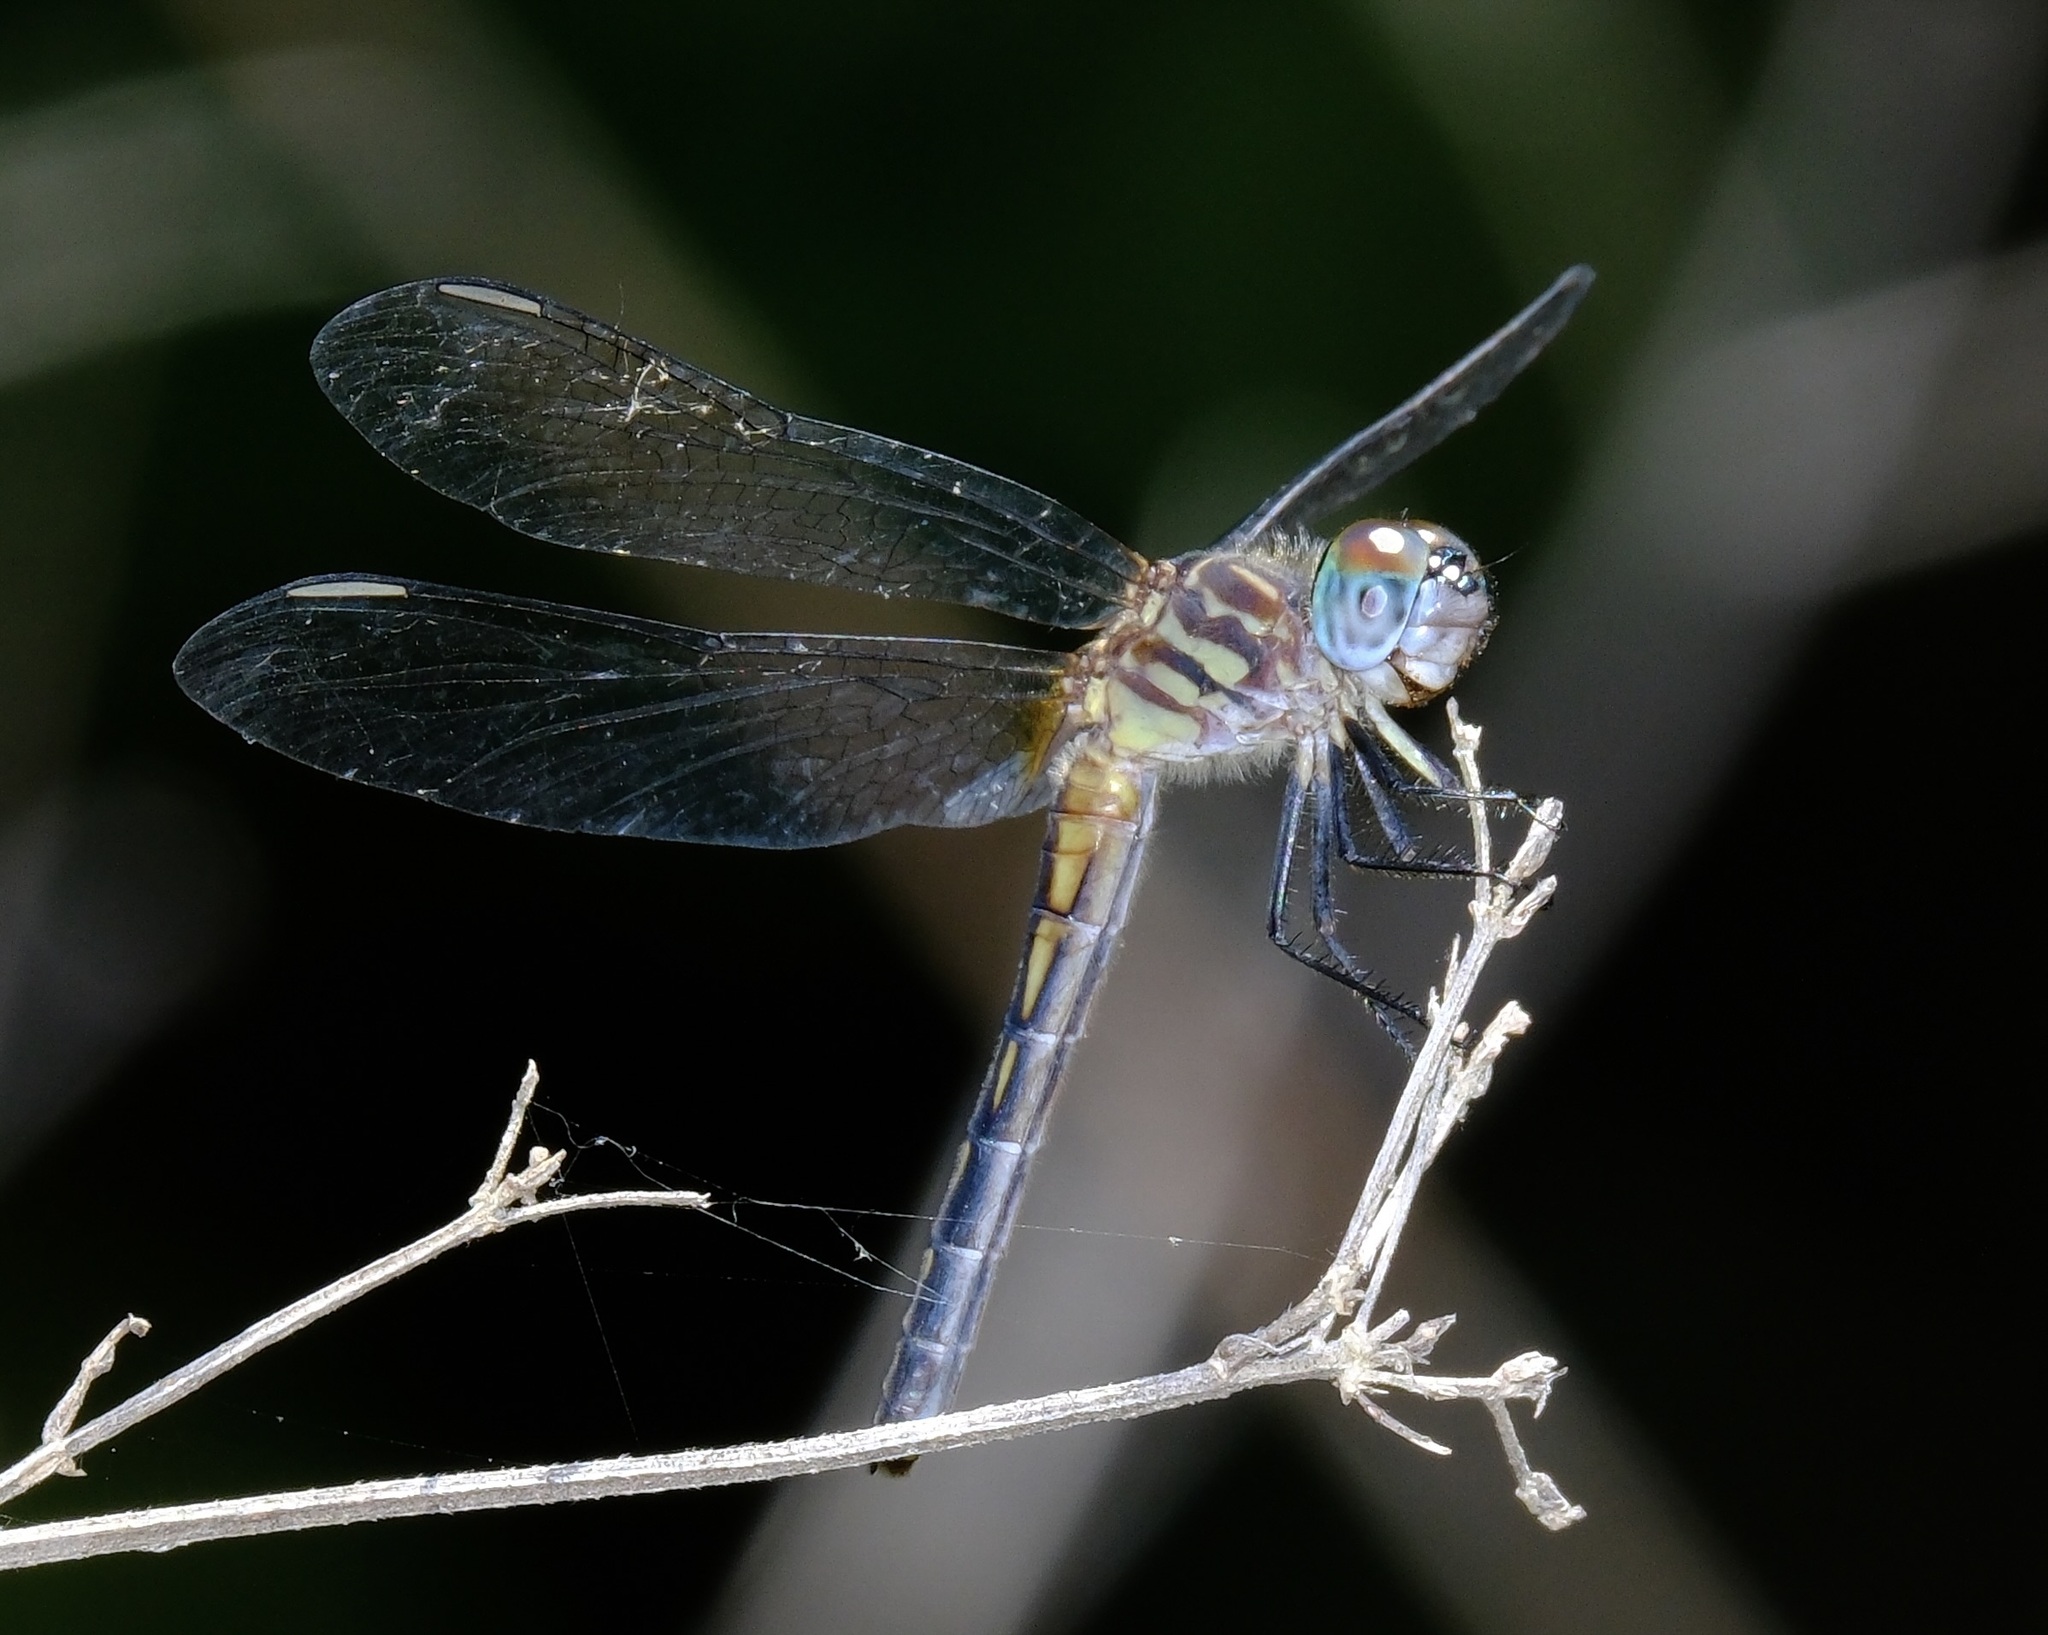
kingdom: Animalia
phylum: Arthropoda
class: Insecta
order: Odonata
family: Libellulidae
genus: Pachydiplax
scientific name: Pachydiplax longipennis
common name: Blue dasher
